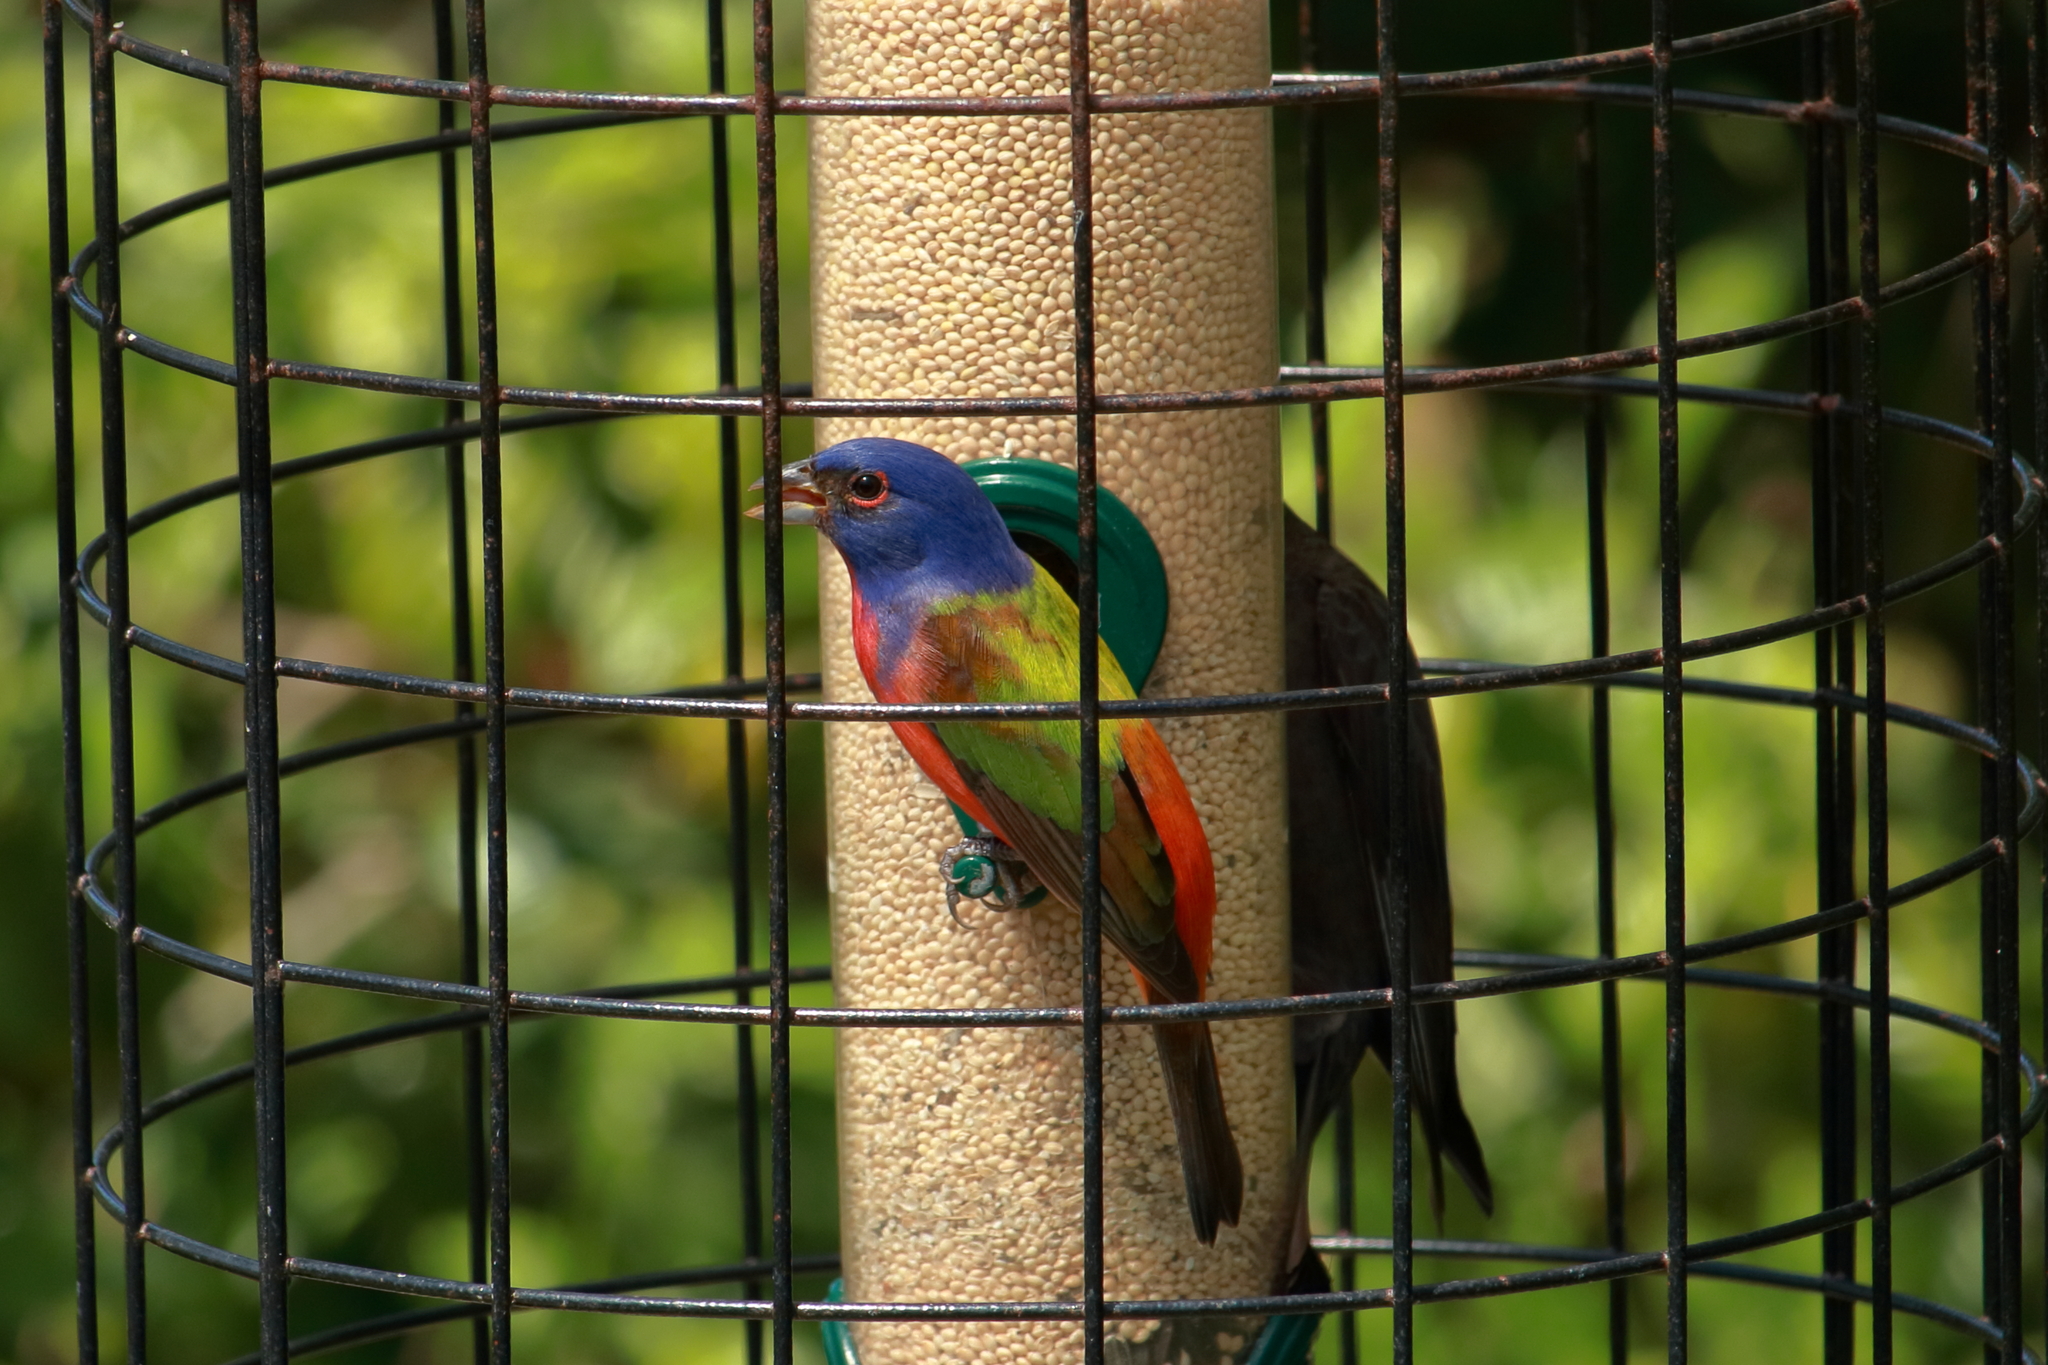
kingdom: Animalia
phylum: Chordata
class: Aves
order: Passeriformes
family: Cardinalidae
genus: Passerina
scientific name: Passerina ciris
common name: Painted bunting
